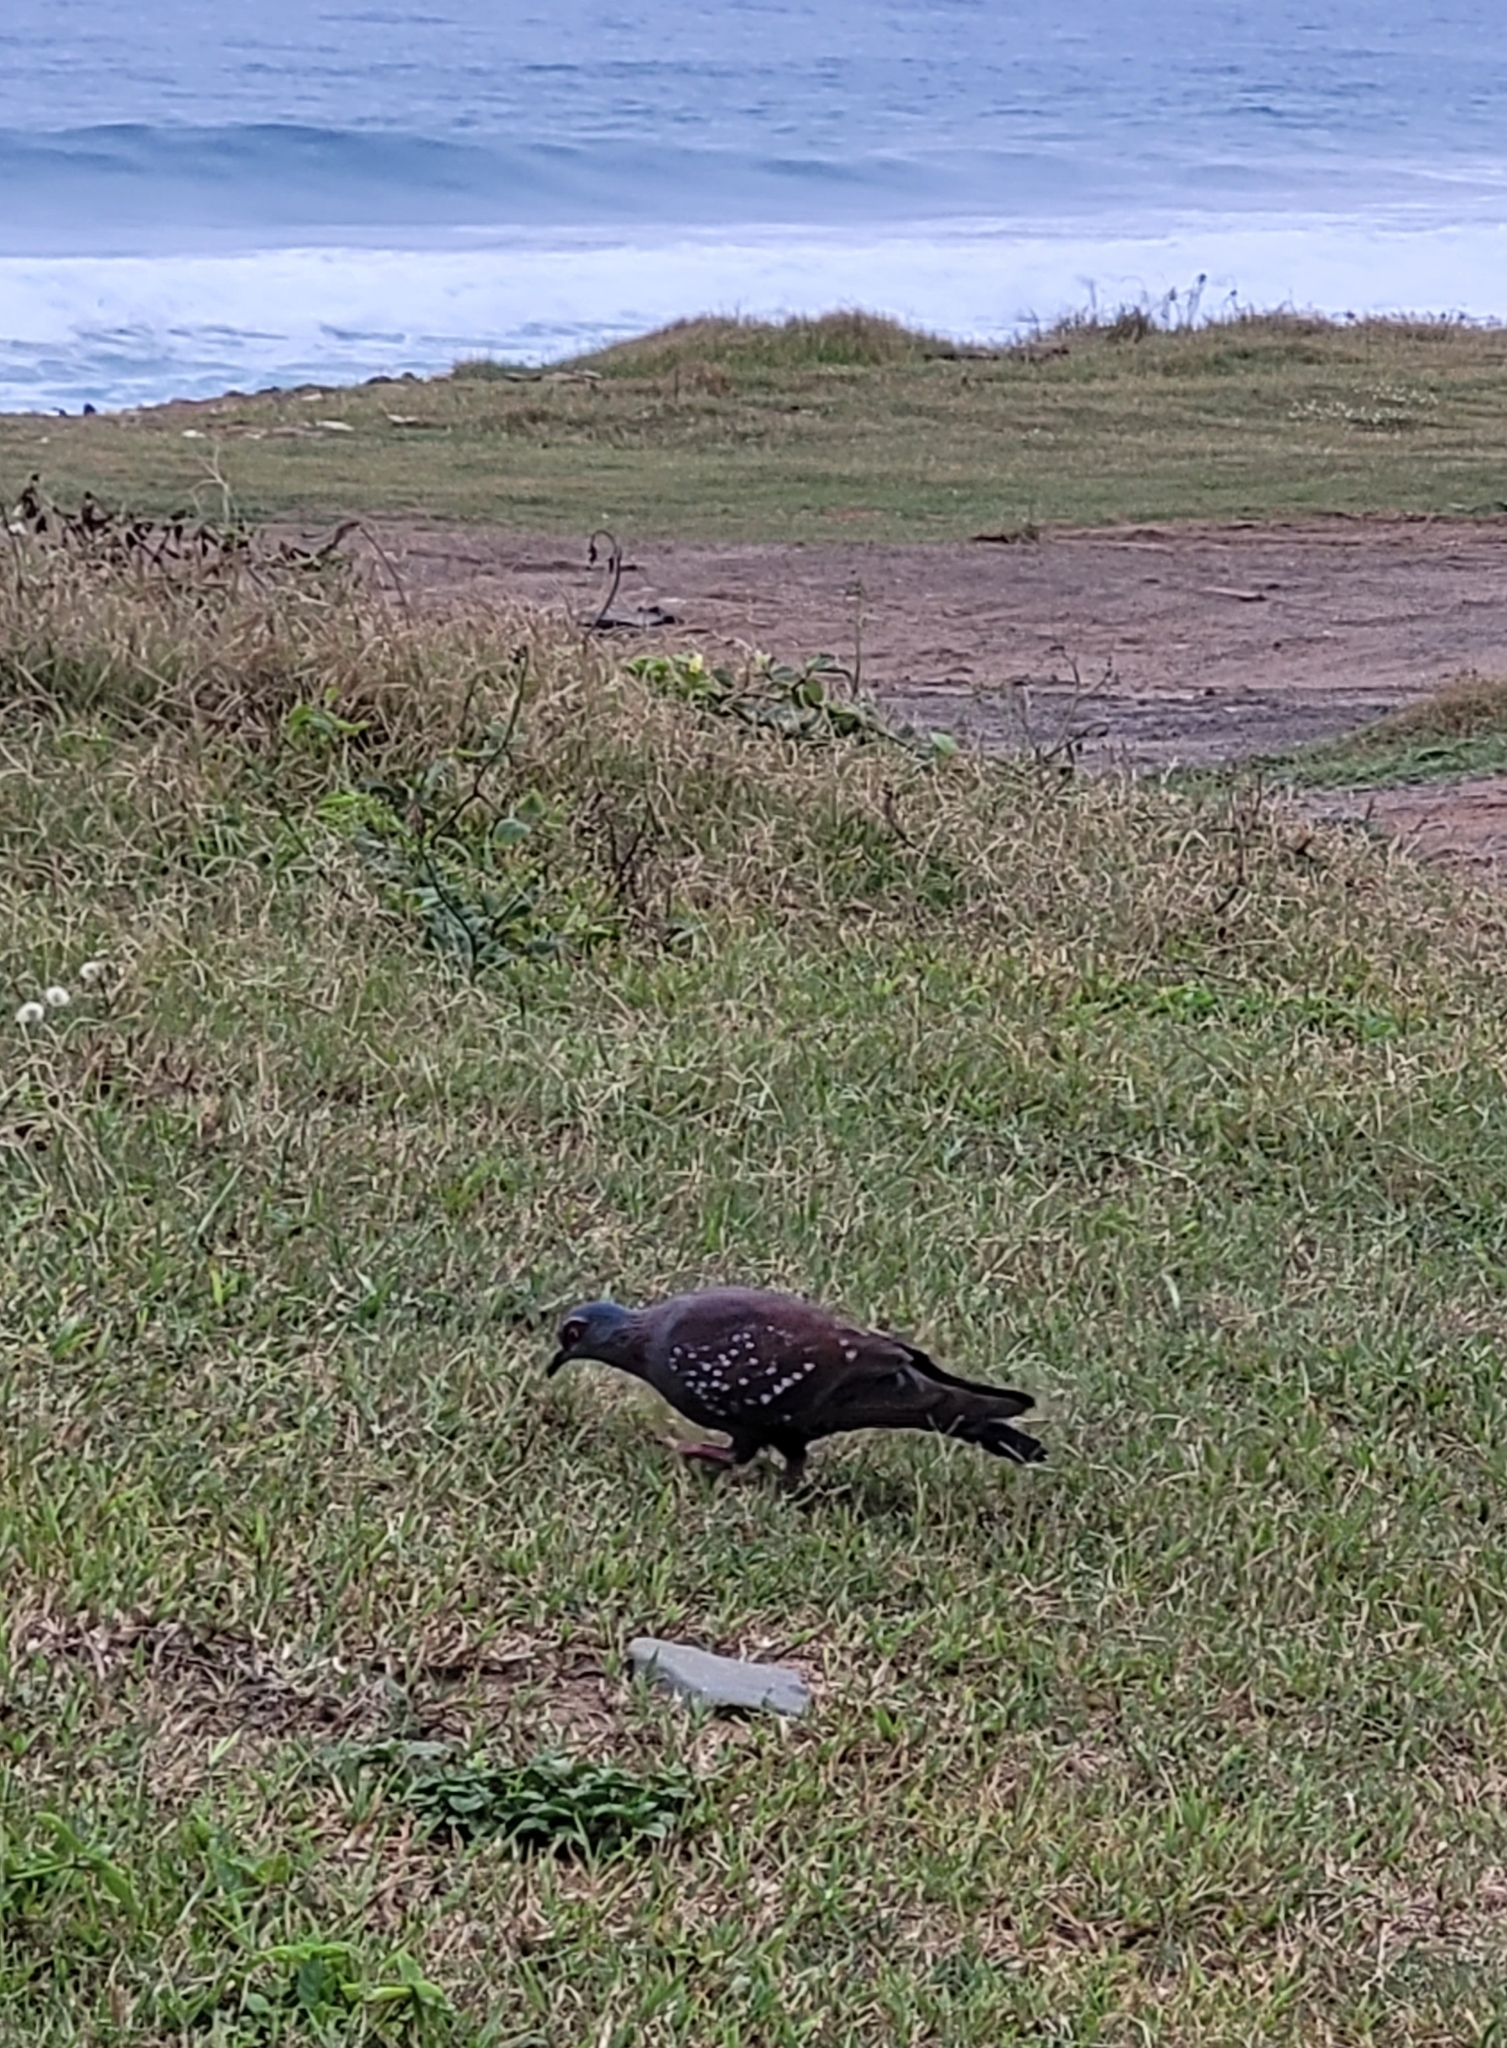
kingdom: Animalia
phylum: Chordata
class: Aves
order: Columbiformes
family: Columbidae
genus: Columba
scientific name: Columba guinea
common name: Speckled pigeon
